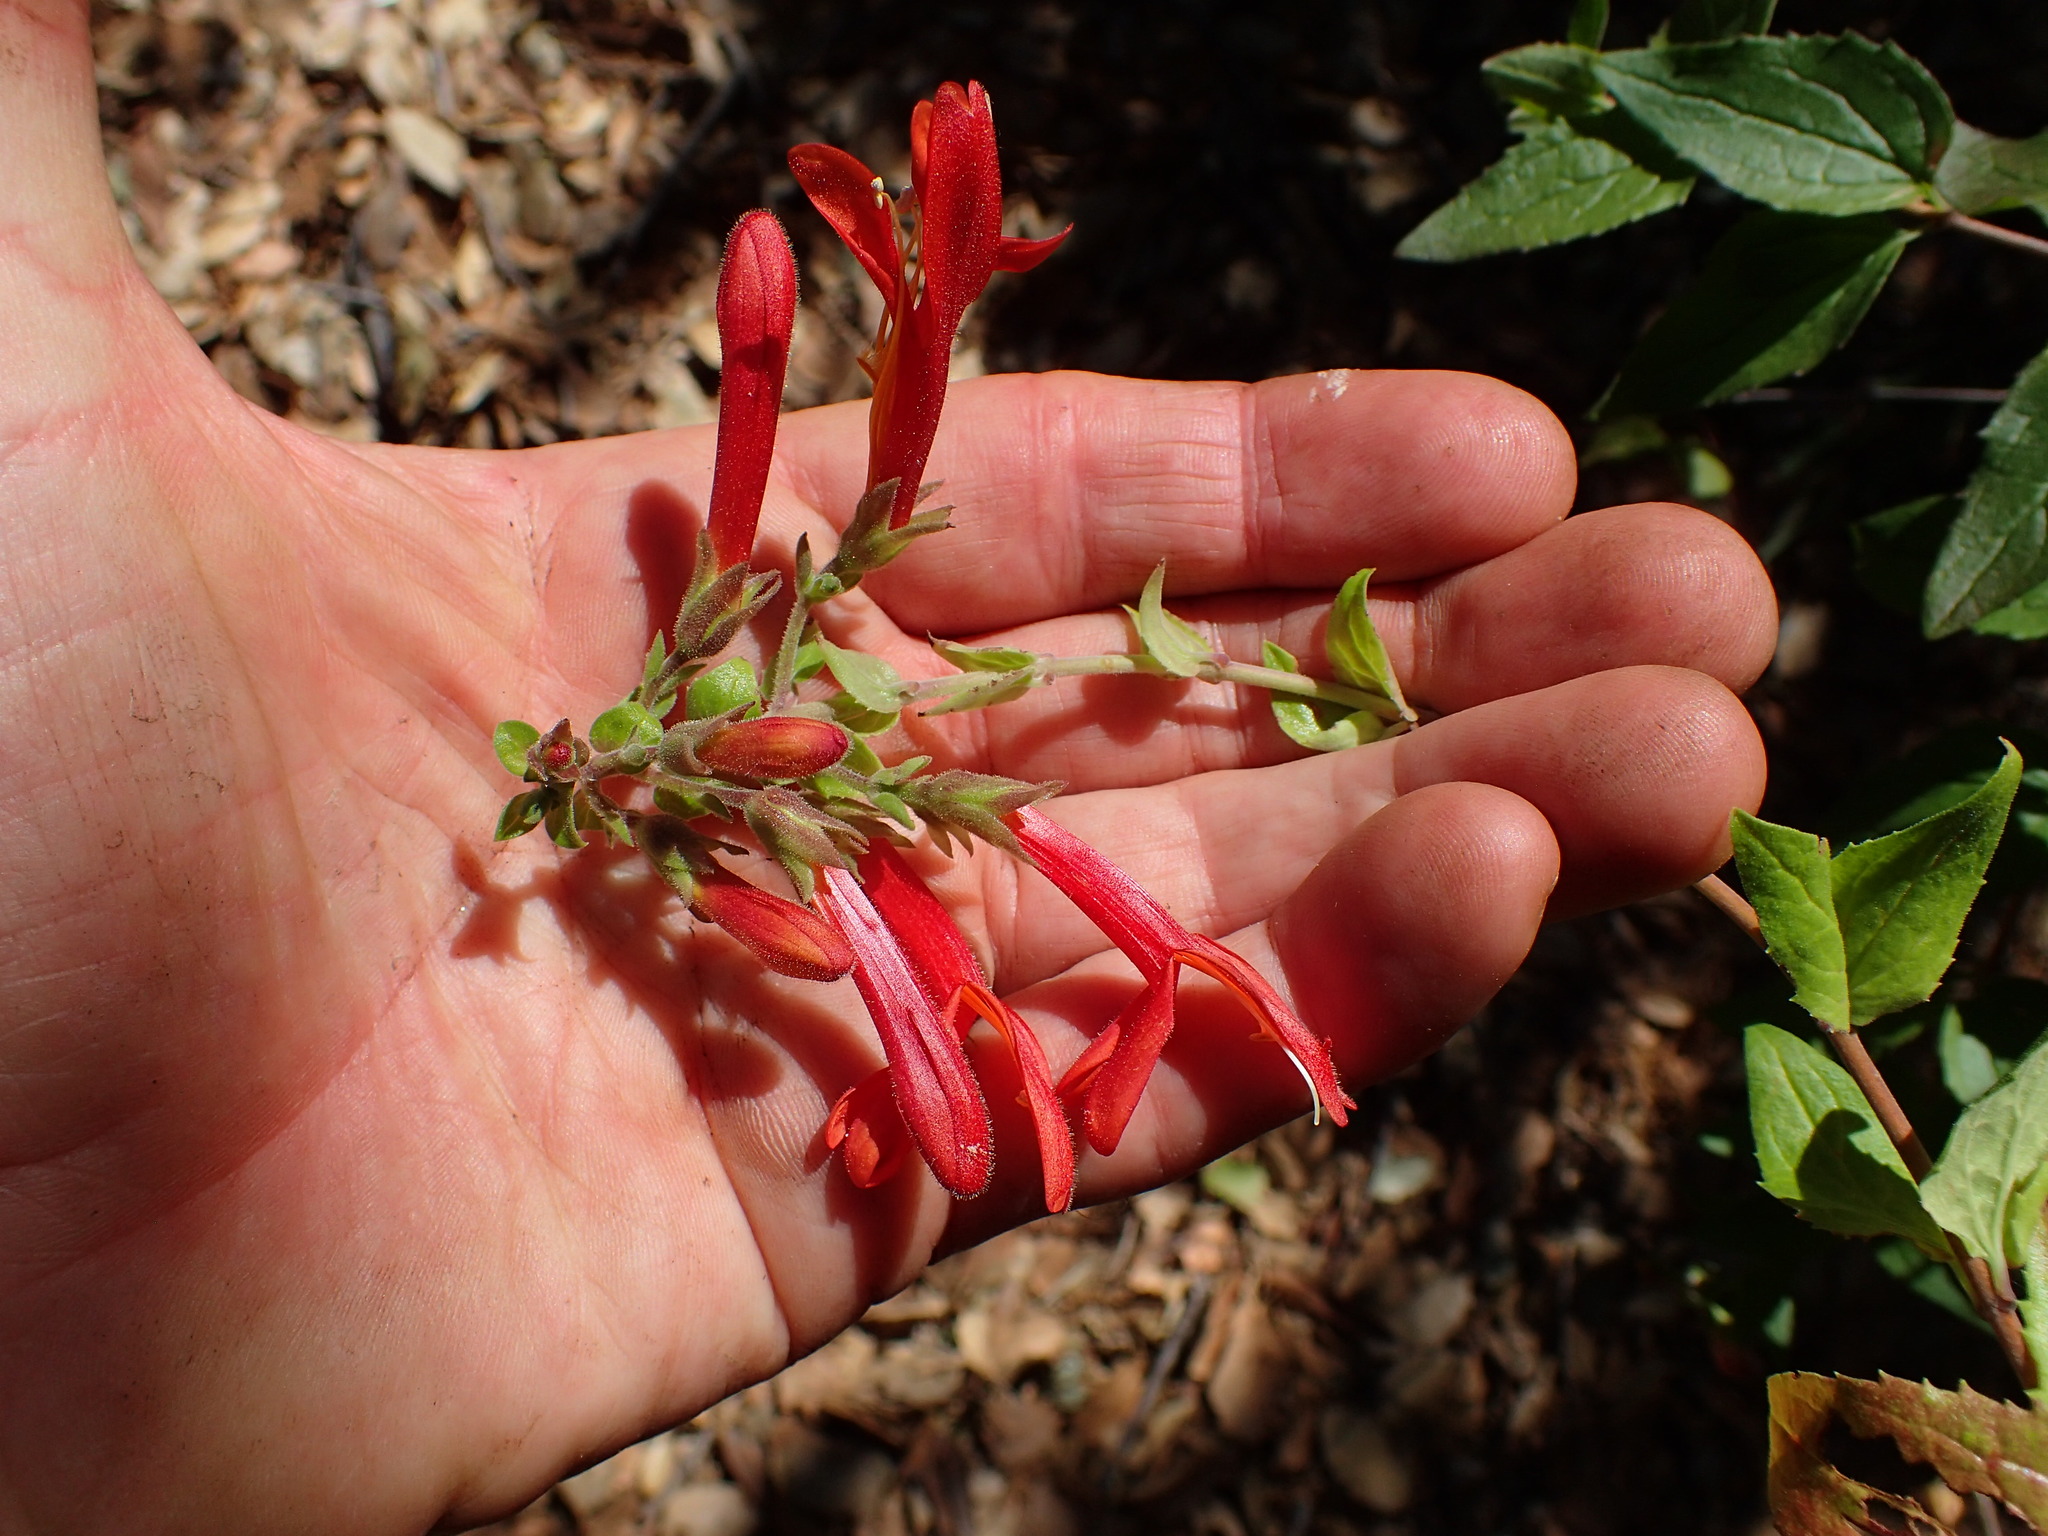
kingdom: Plantae
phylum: Tracheophyta
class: Magnoliopsida
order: Lamiales
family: Plantaginaceae
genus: Keckiella
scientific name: Keckiella cordifolia
